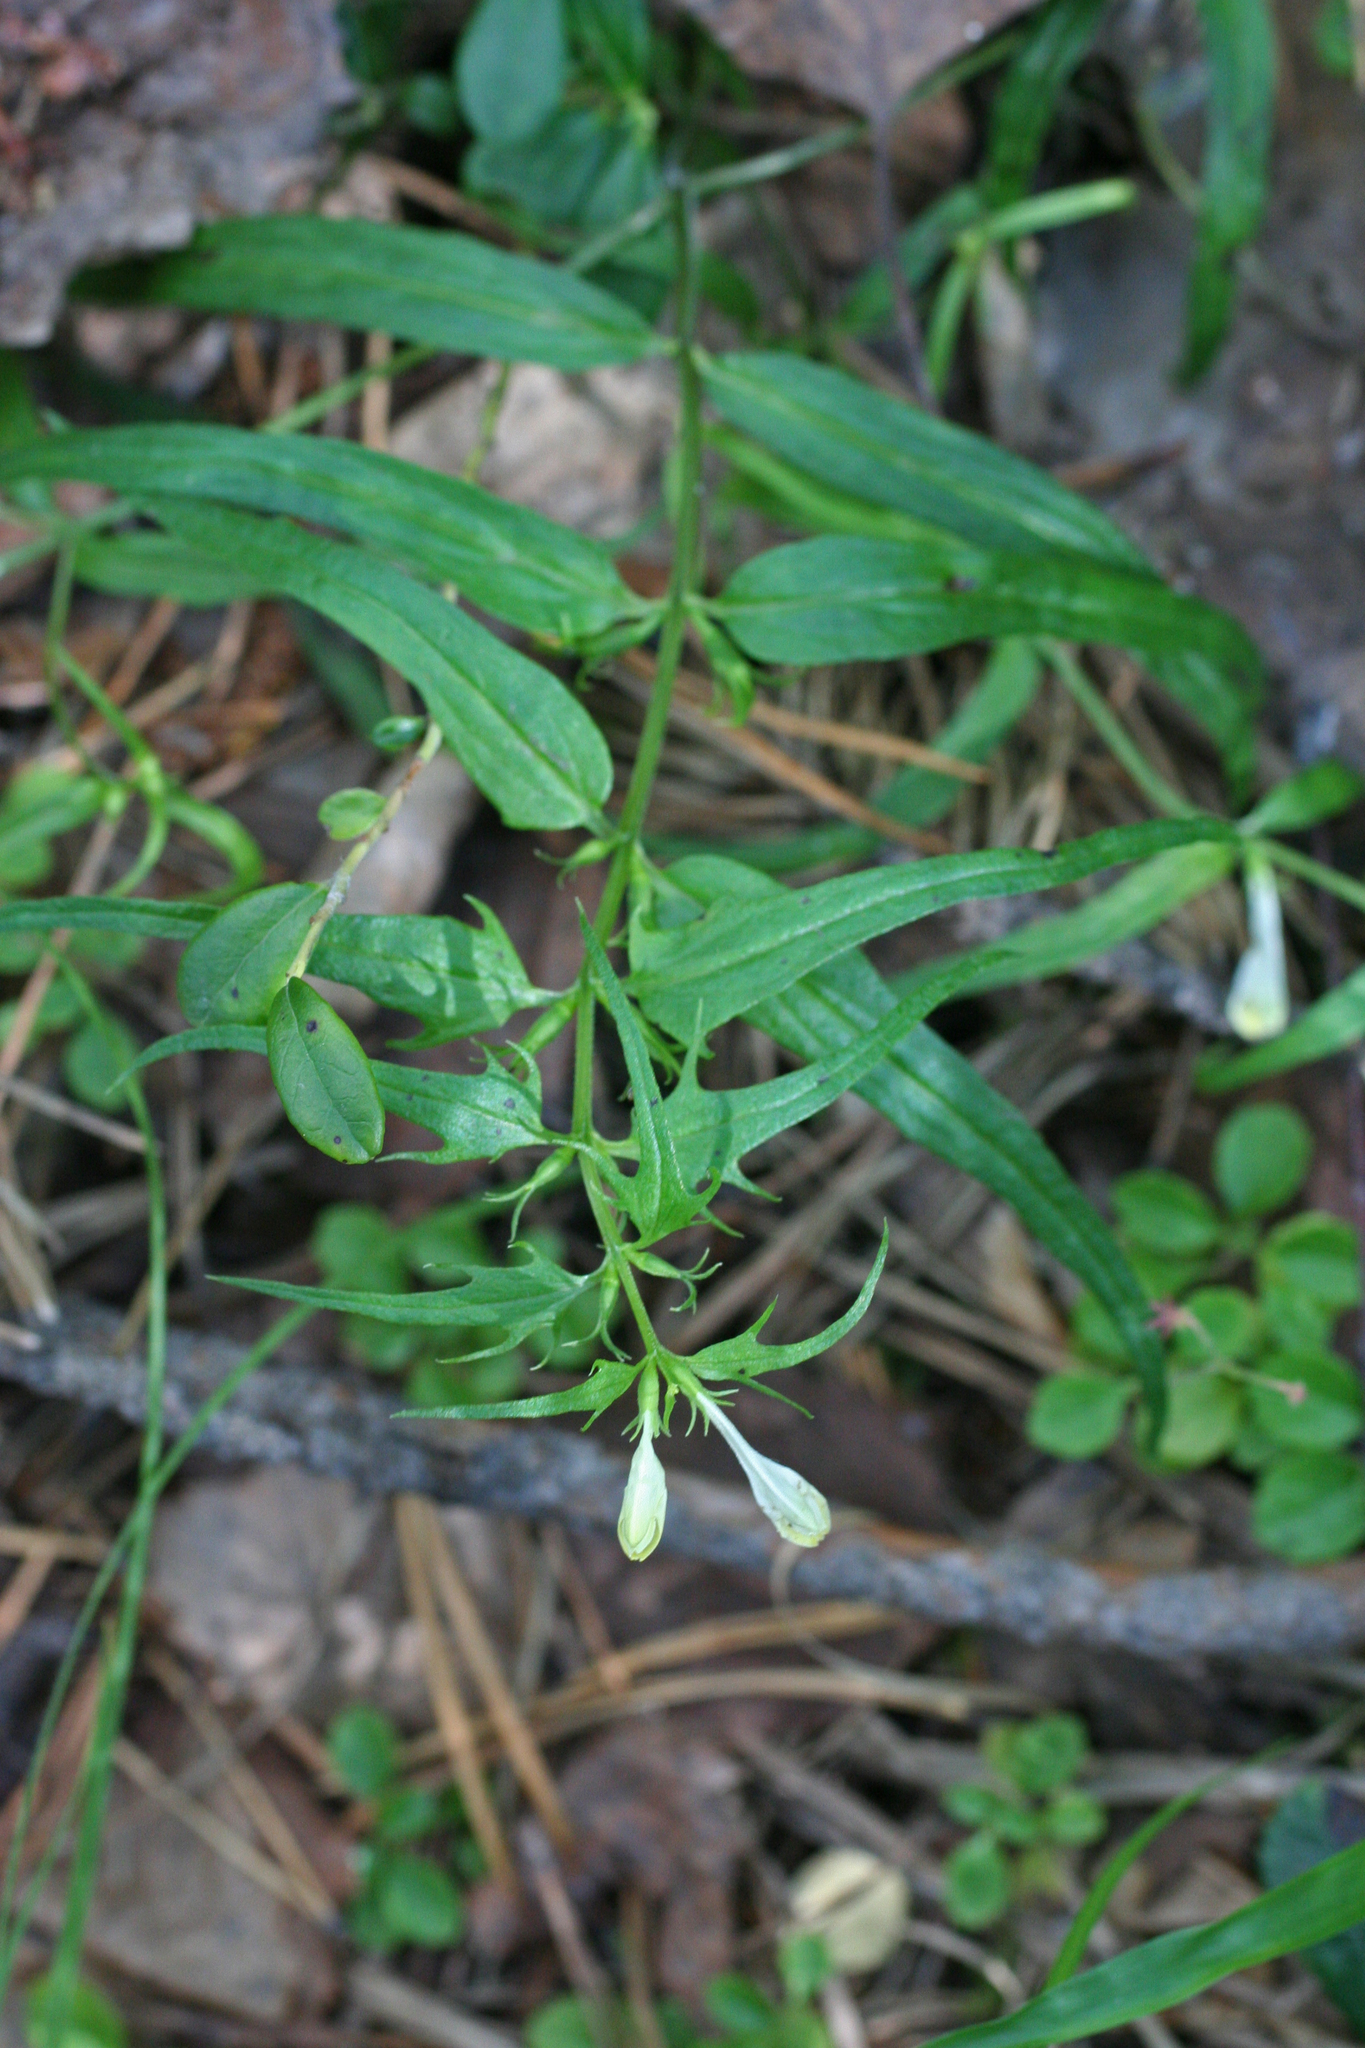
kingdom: Plantae
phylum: Tracheophyta
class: Magnoliopsida
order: Lamiales
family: Orobanchaceae
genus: Melampyrum
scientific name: Melampyrum pratense
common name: Common cow-wheat
